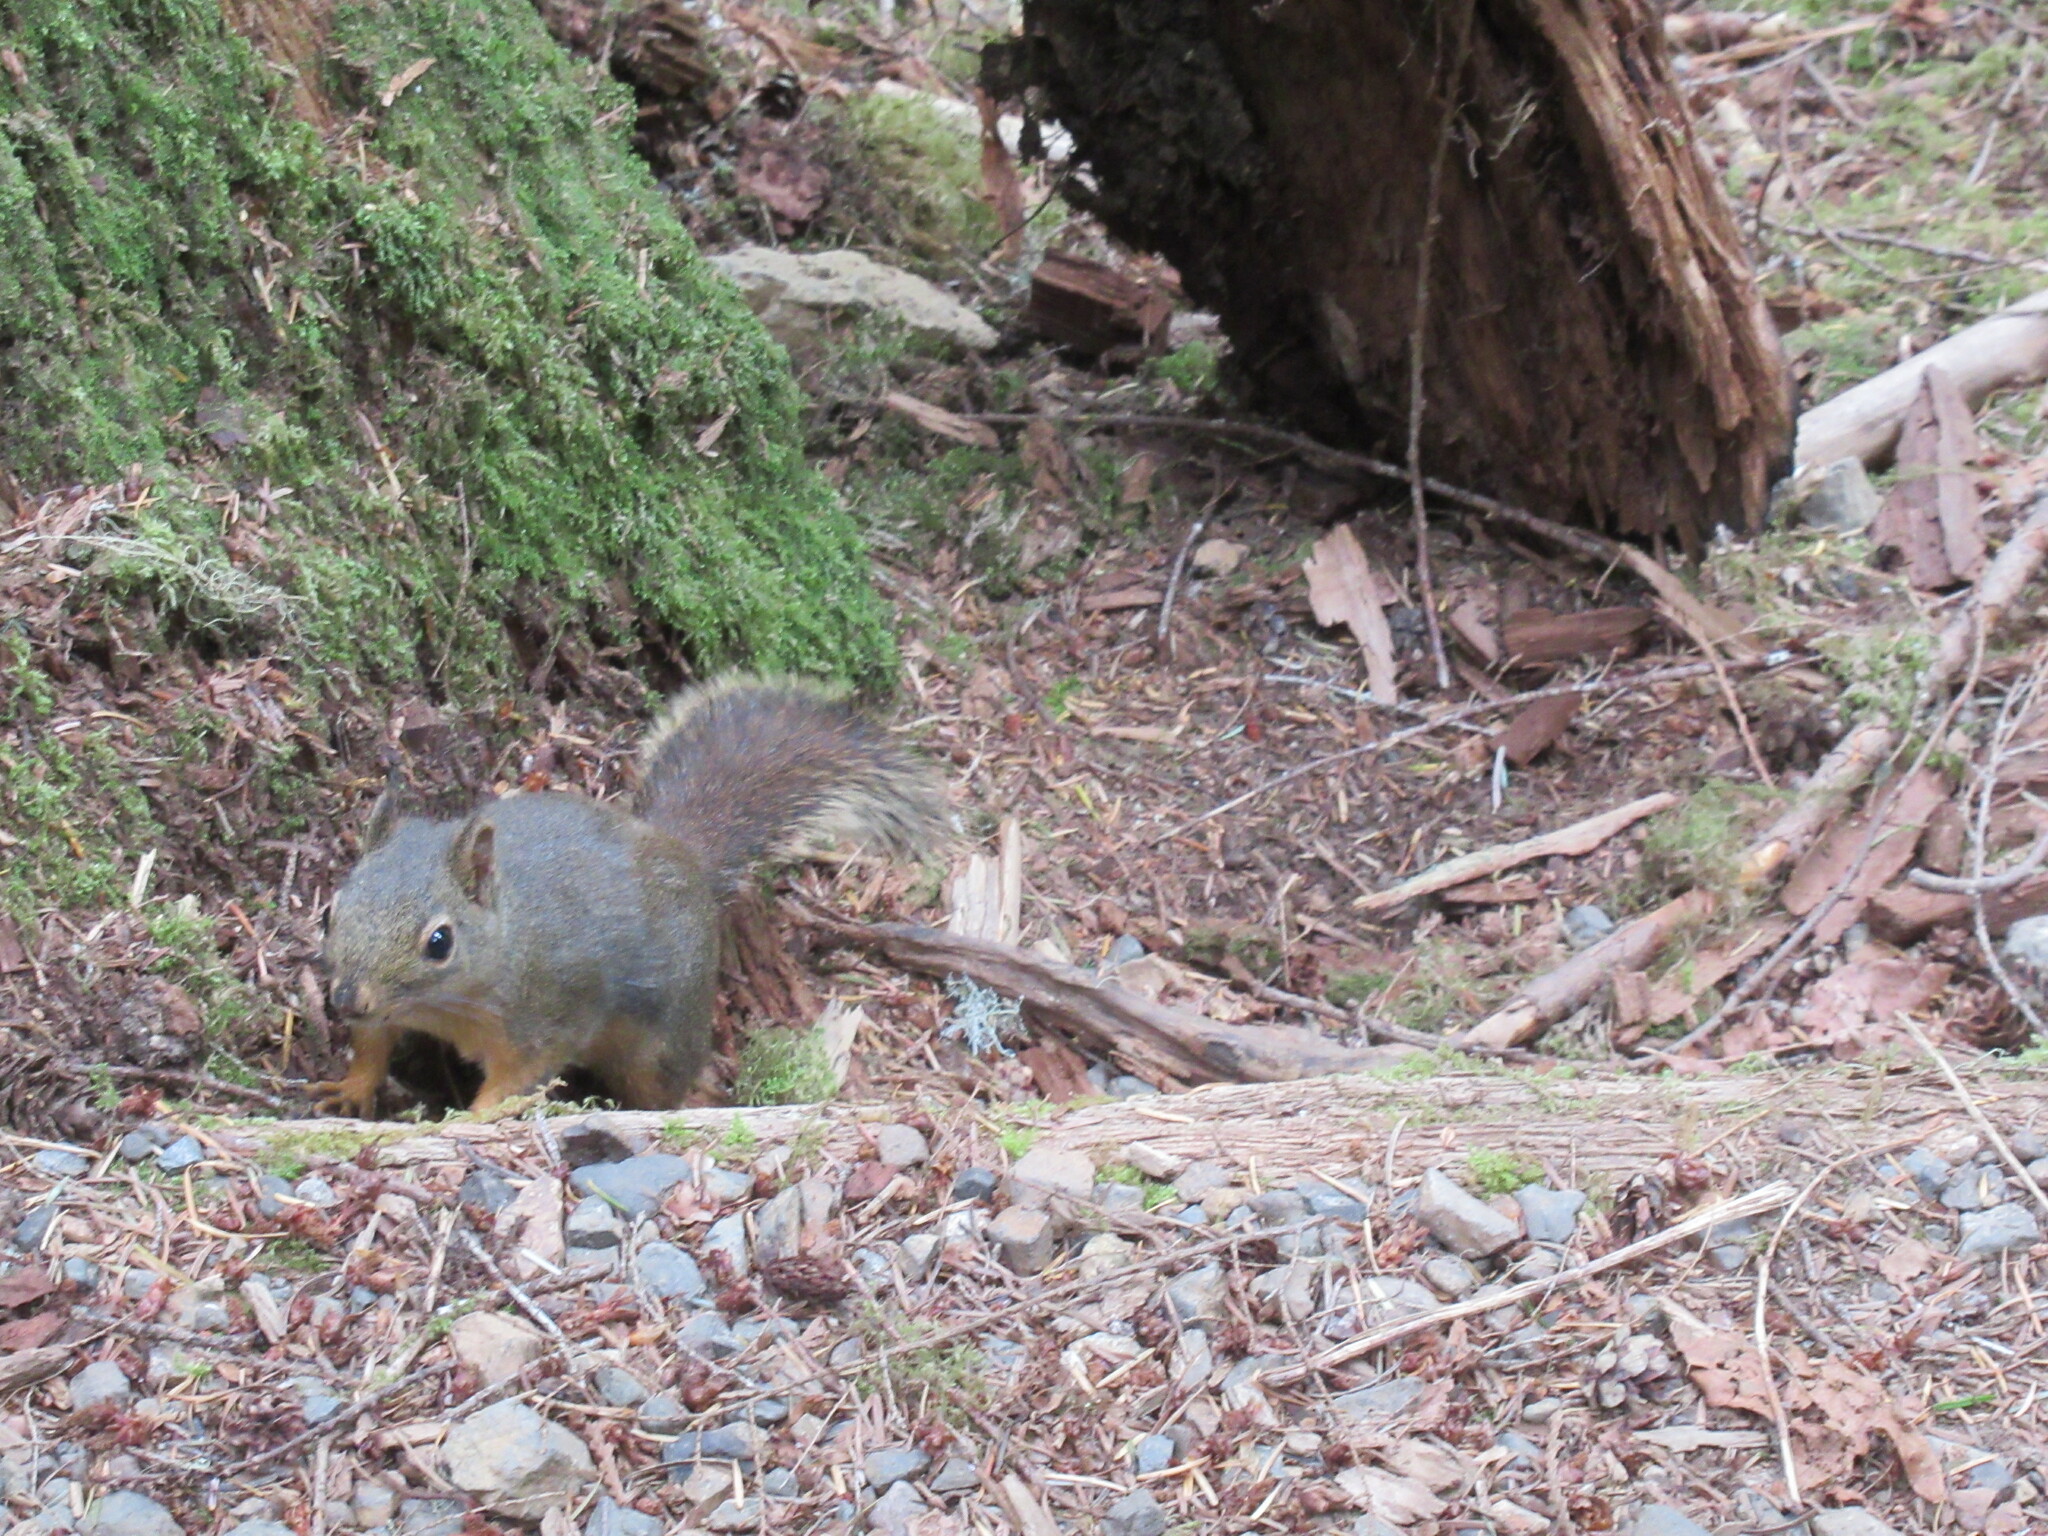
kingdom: Animalia
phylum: Chordata
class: Mammalia
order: Rodentia
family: Sciuridae
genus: Tamiasciurus
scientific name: Tamiasciurus douglasii
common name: Douglas's squirrel
